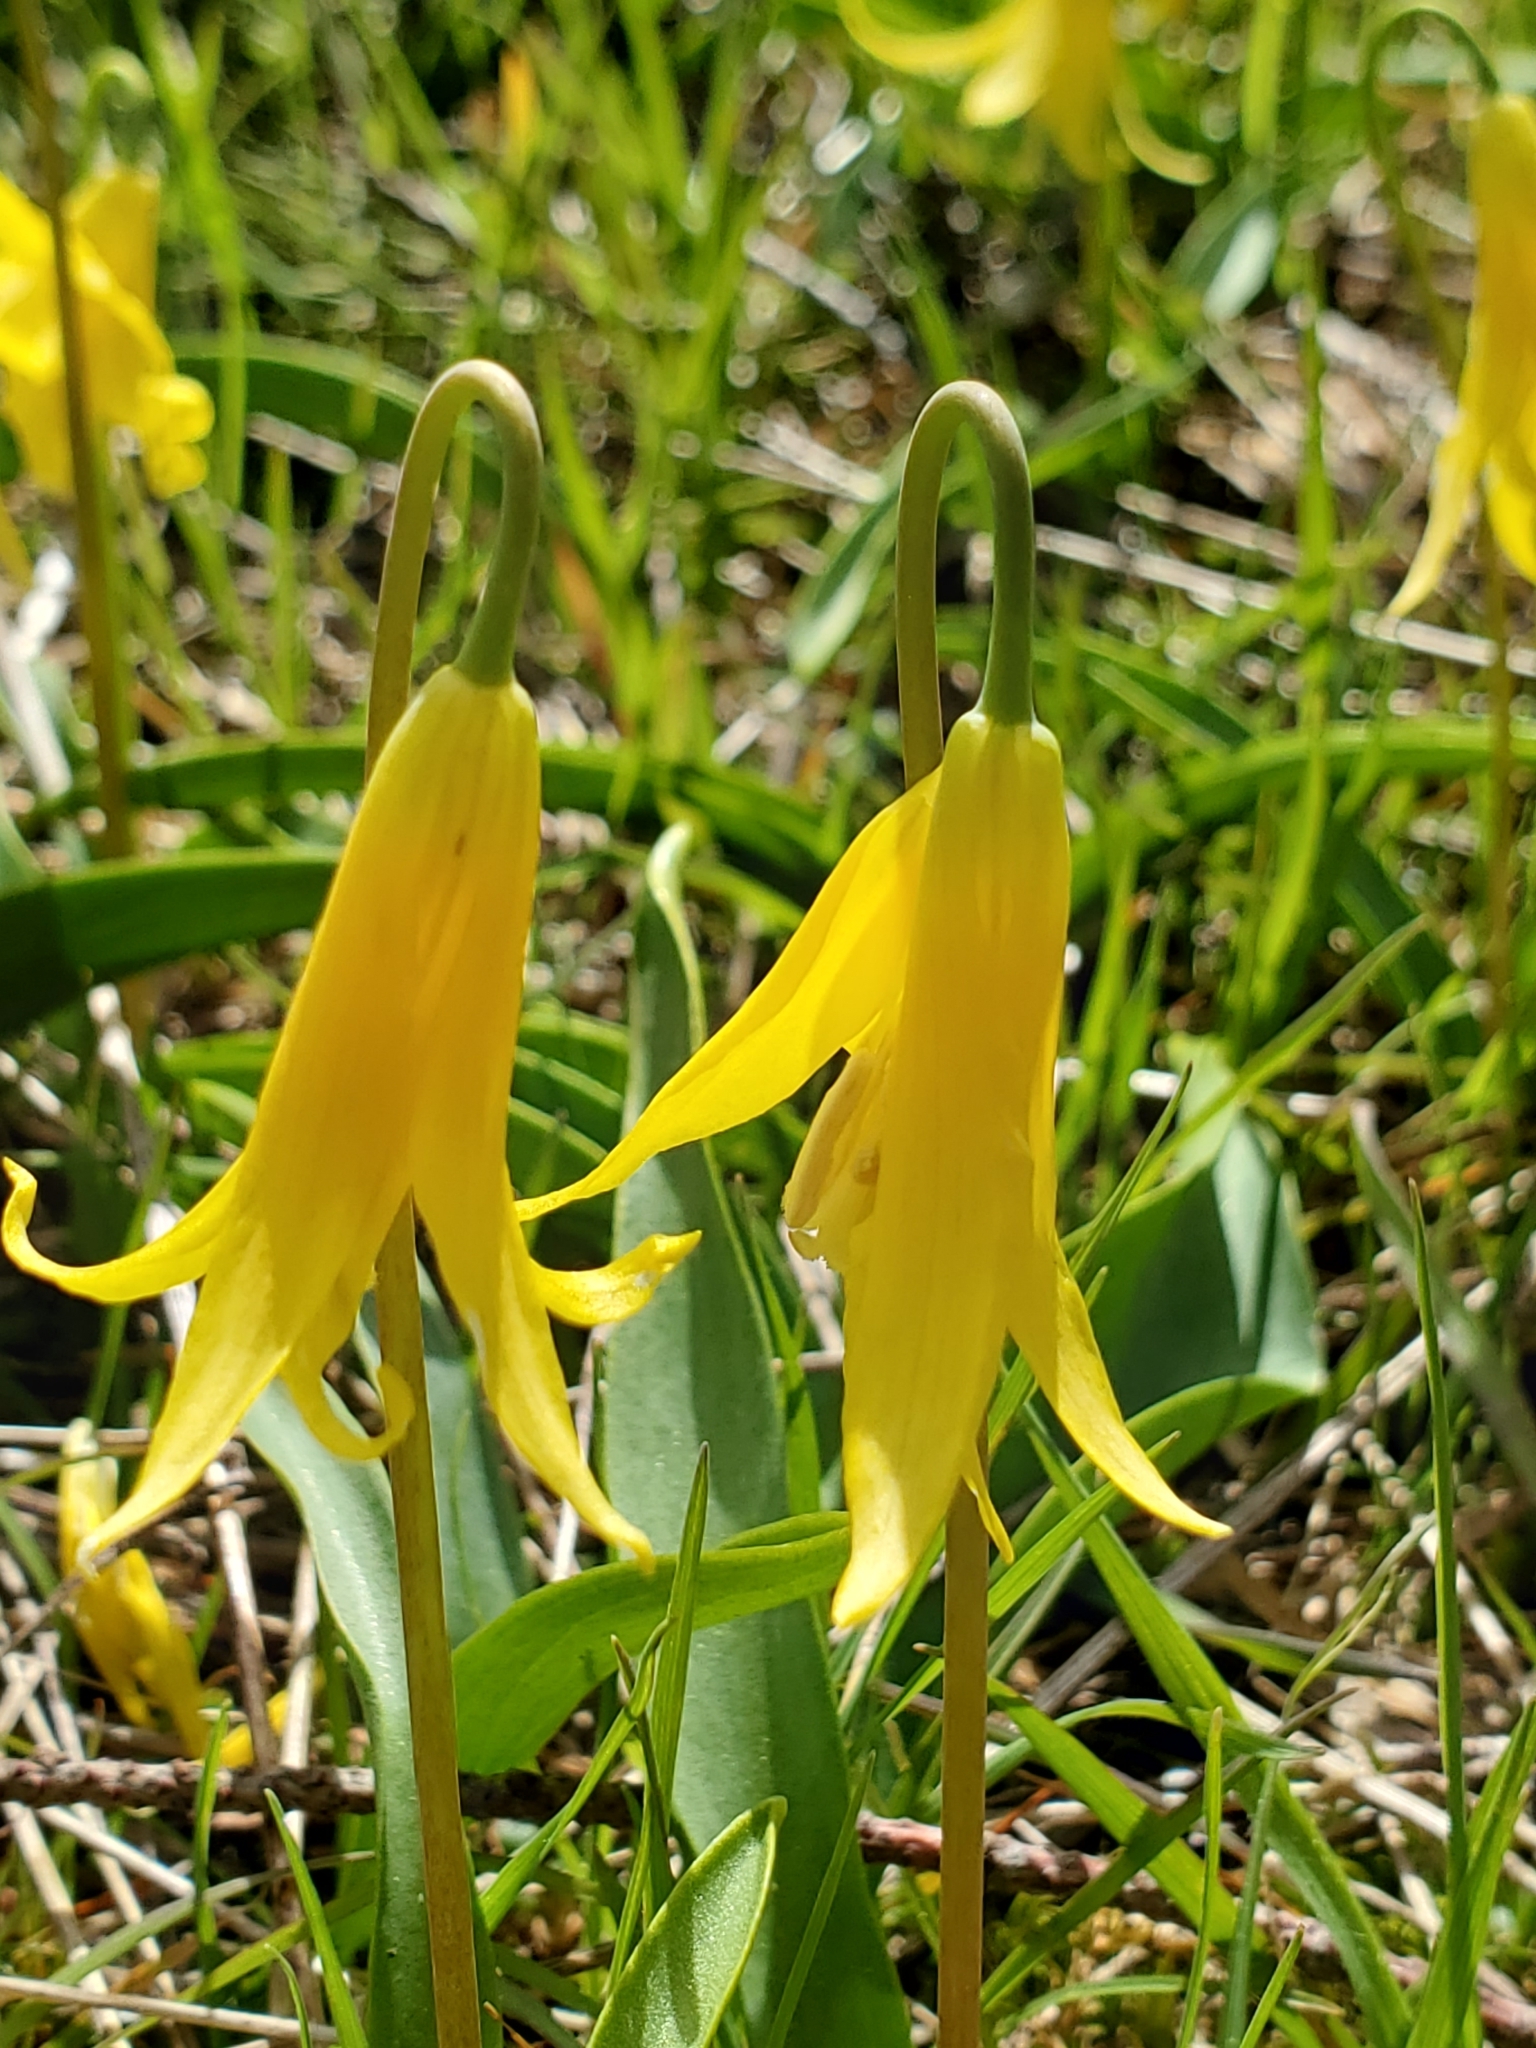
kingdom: Plantae
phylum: Tracheophyta
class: Liliopsida
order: Liliales
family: Liliaceae
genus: Erythronium
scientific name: Erythronium grandiflorum
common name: Avalanche-lily
